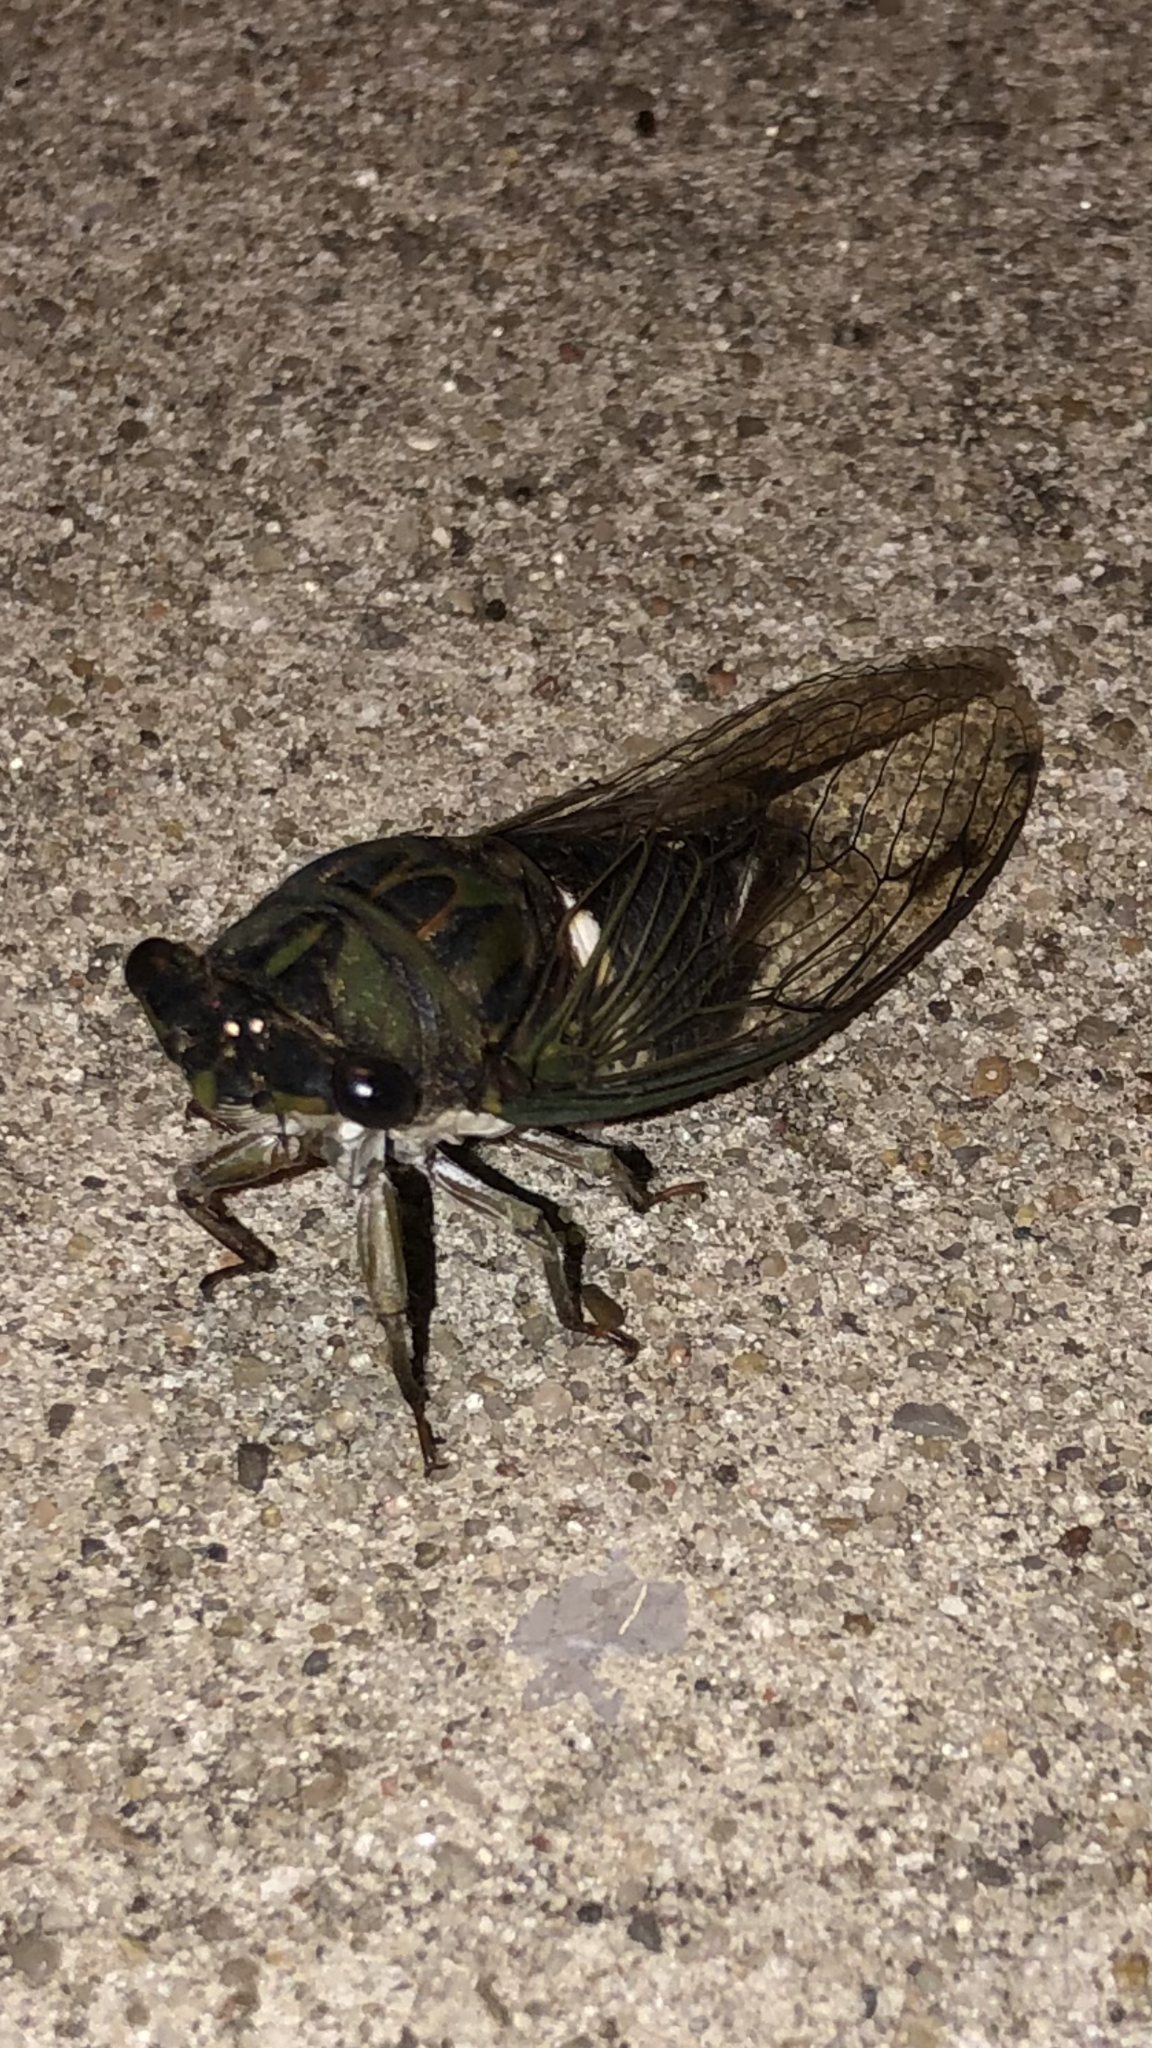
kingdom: Animalia
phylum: Arthropoda
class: Insecta
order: Hemiptera
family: Cicadidae
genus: Neotibicen
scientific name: Neotibicen pruinosus
